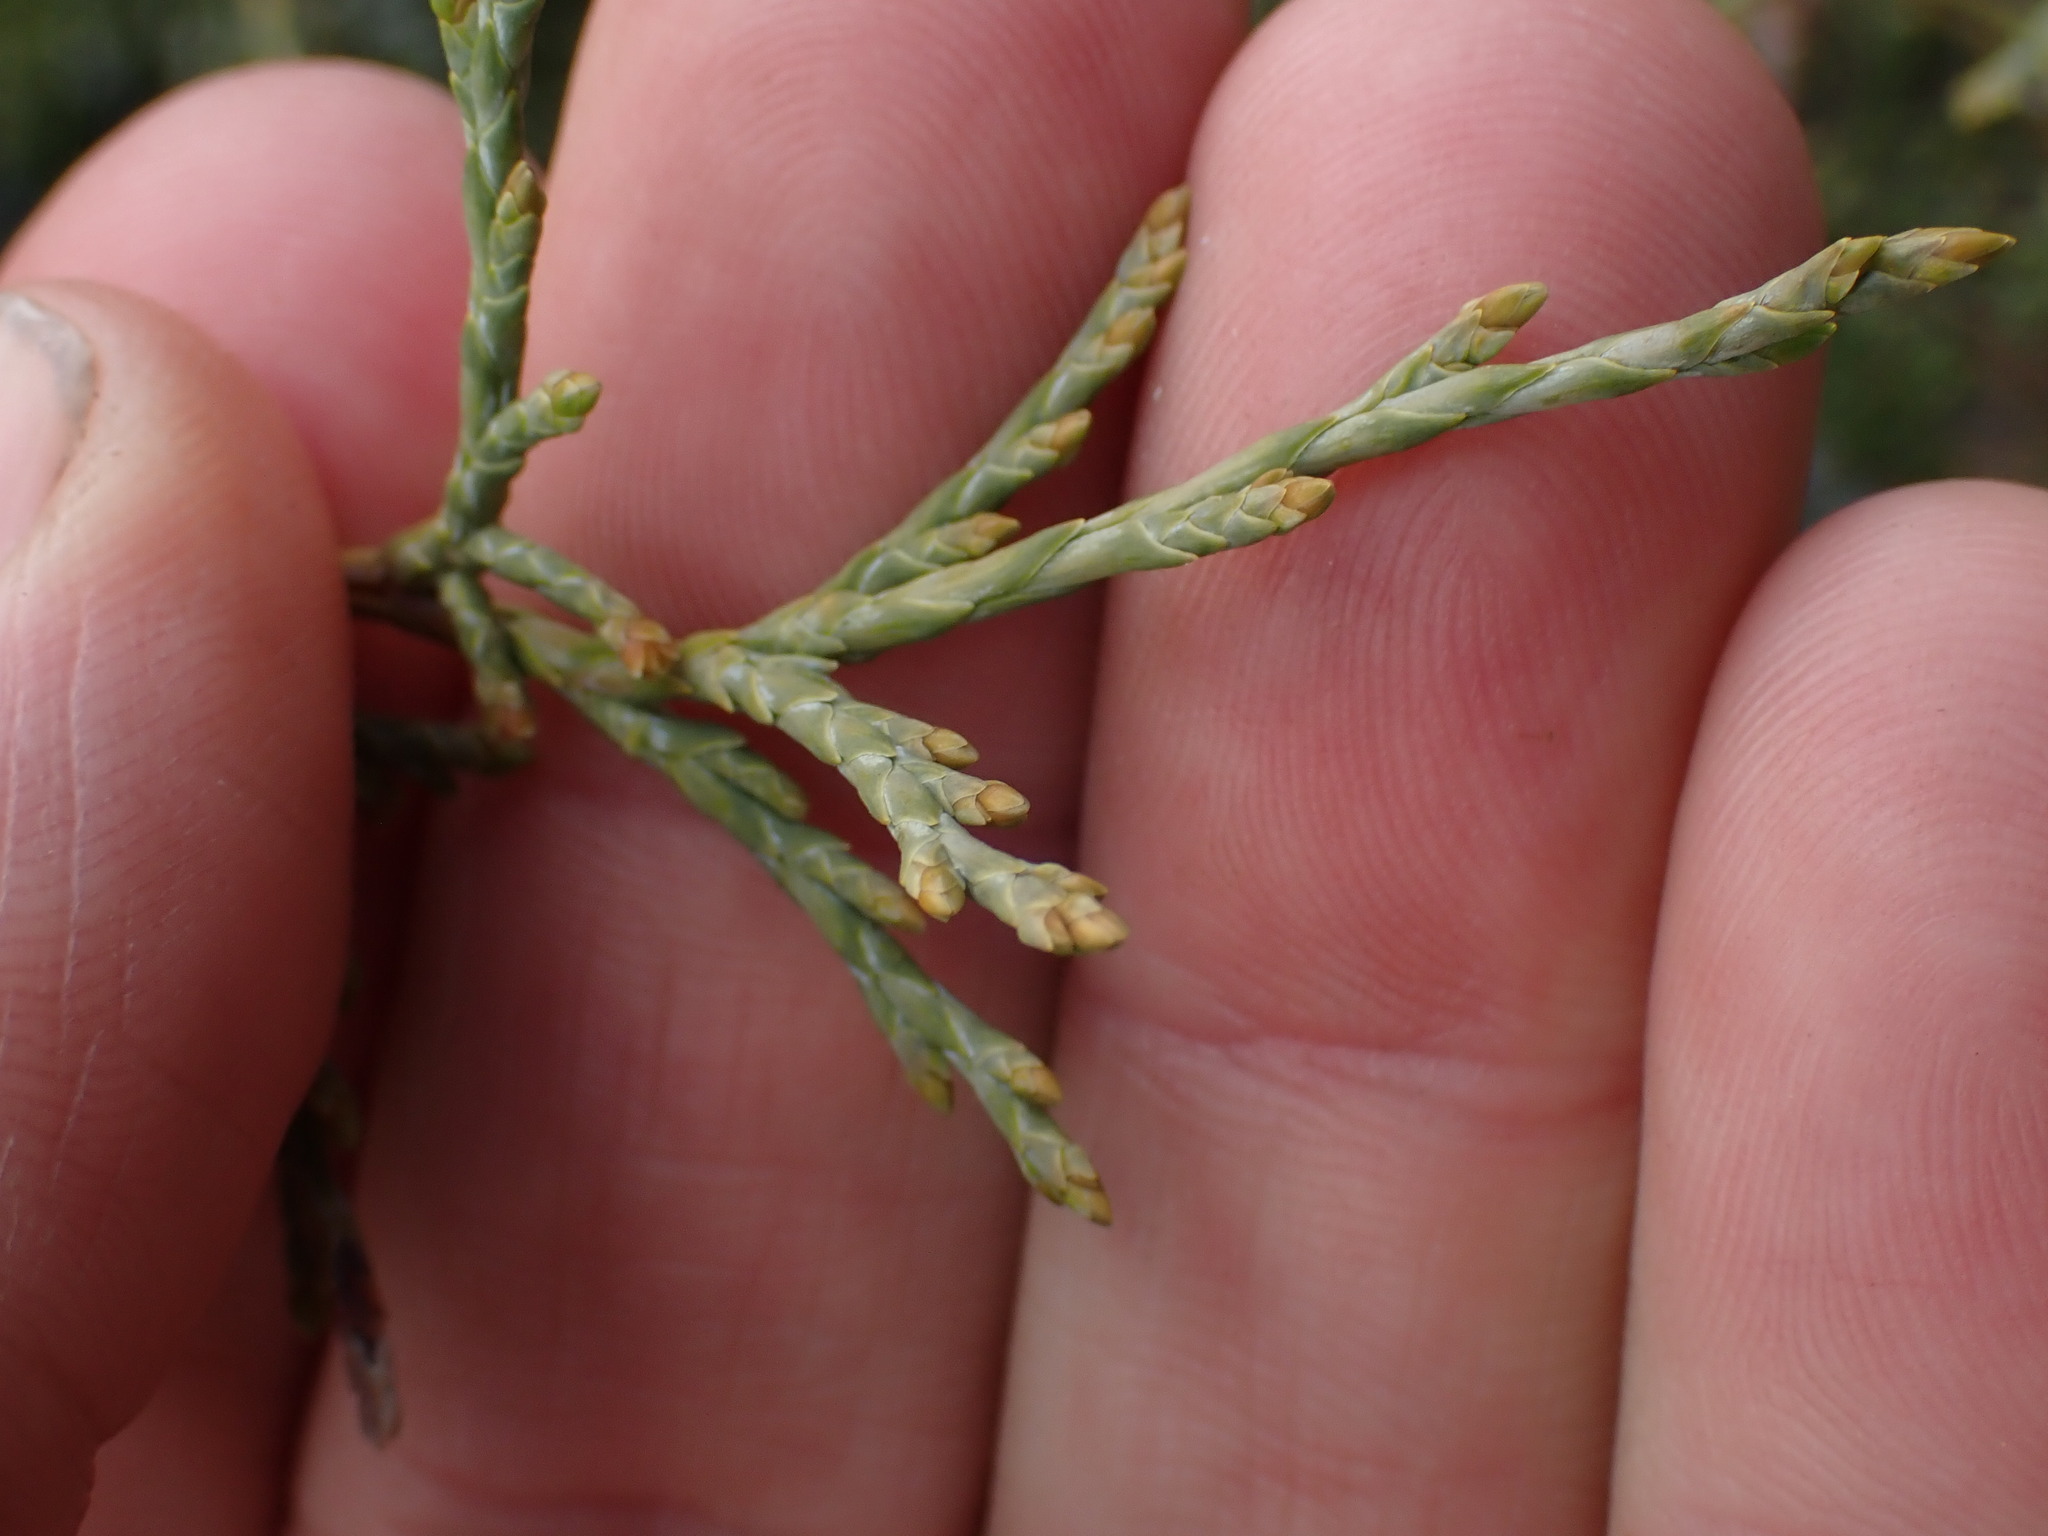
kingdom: Plantae
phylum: Tracheophyta
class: Pinopsida
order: Pinales
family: Cupressaceae
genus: Juniperus
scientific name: Juniperus scopulorum
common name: Rocky mountain juniper
